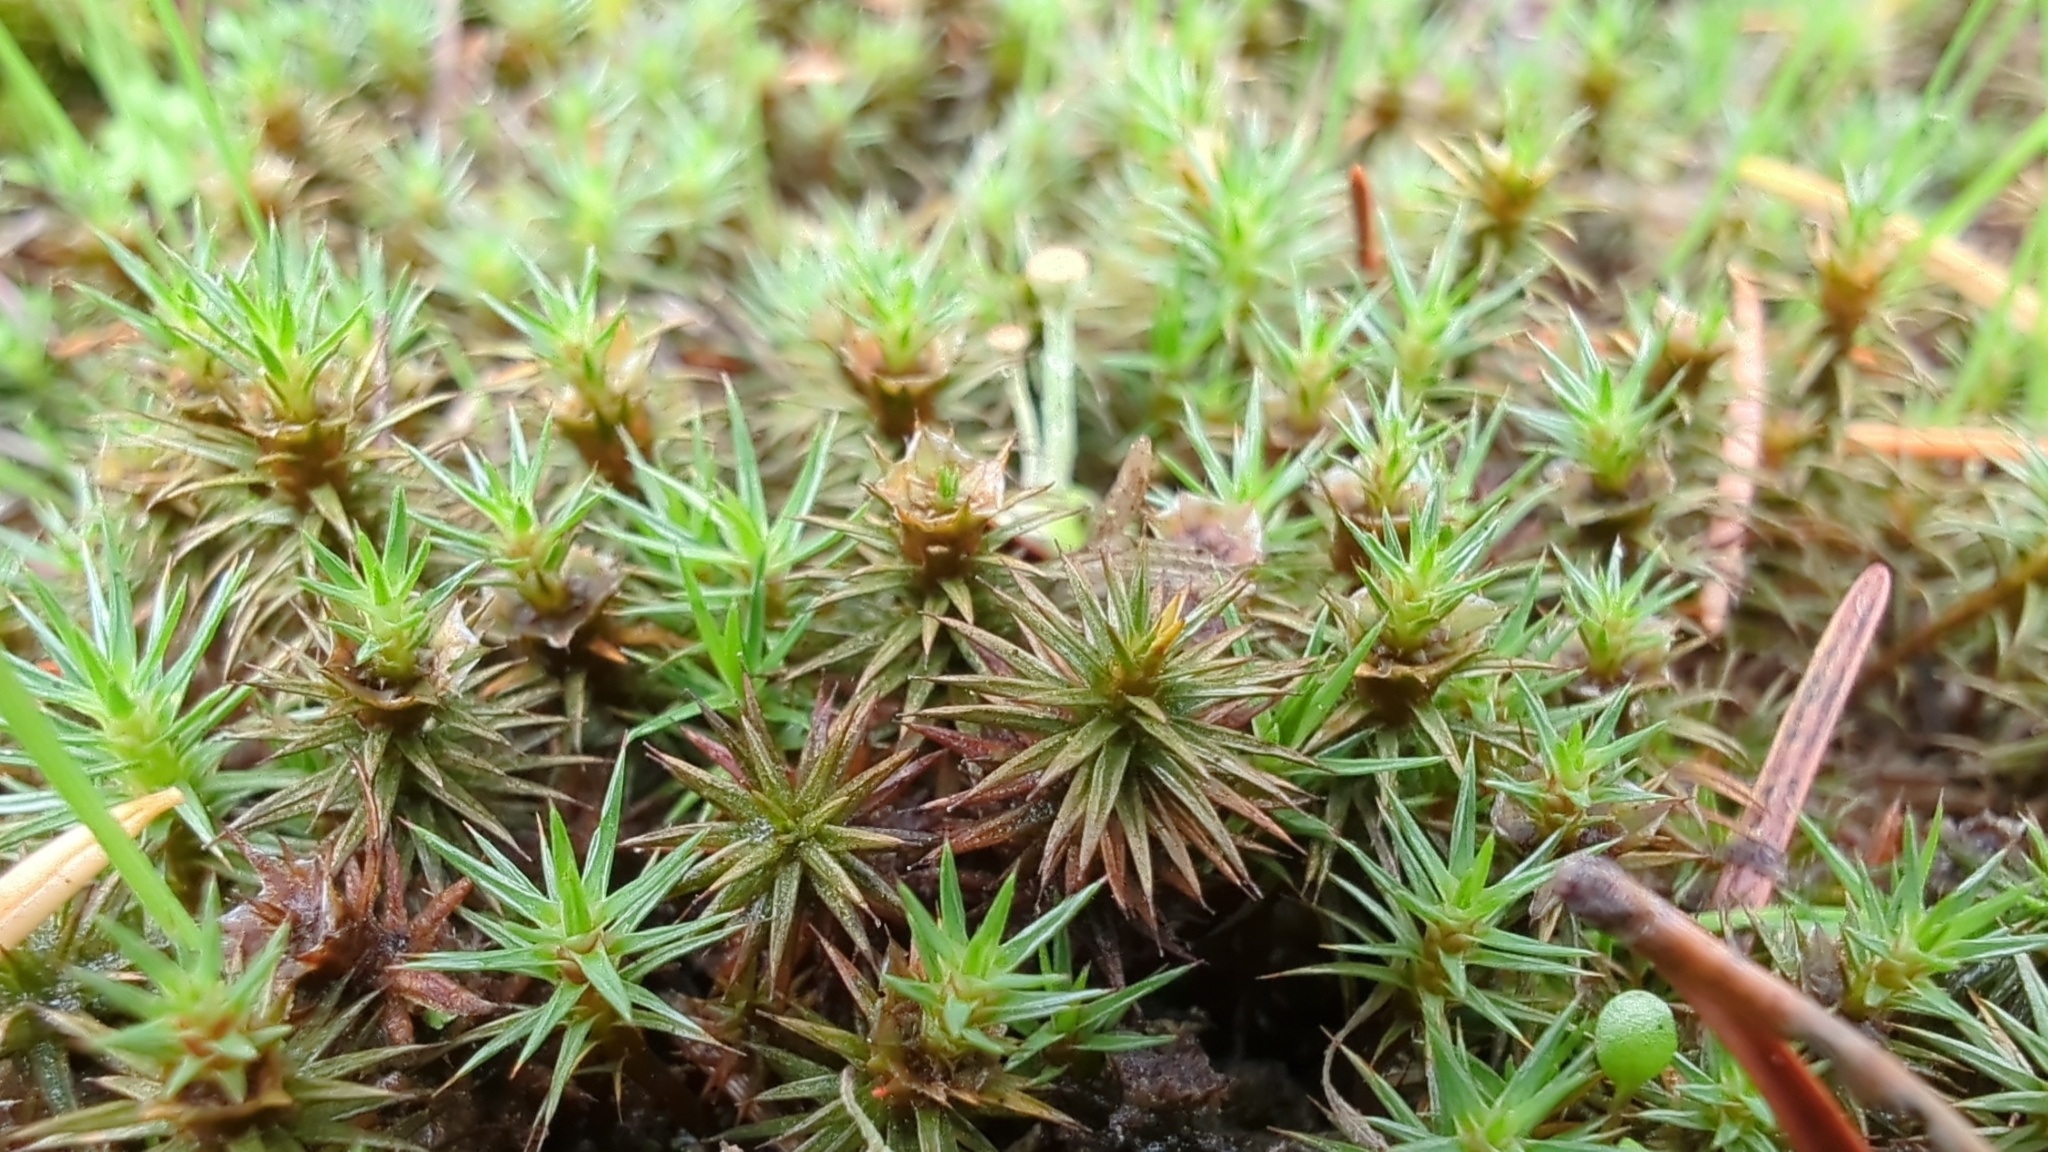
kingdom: Plantae
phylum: Bryophyta
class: Polytrichopsida
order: Polytrichales
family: Polytrichaceae
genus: Polytrichum
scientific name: Polytrichum juniperinum
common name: Juniper haircap moss
